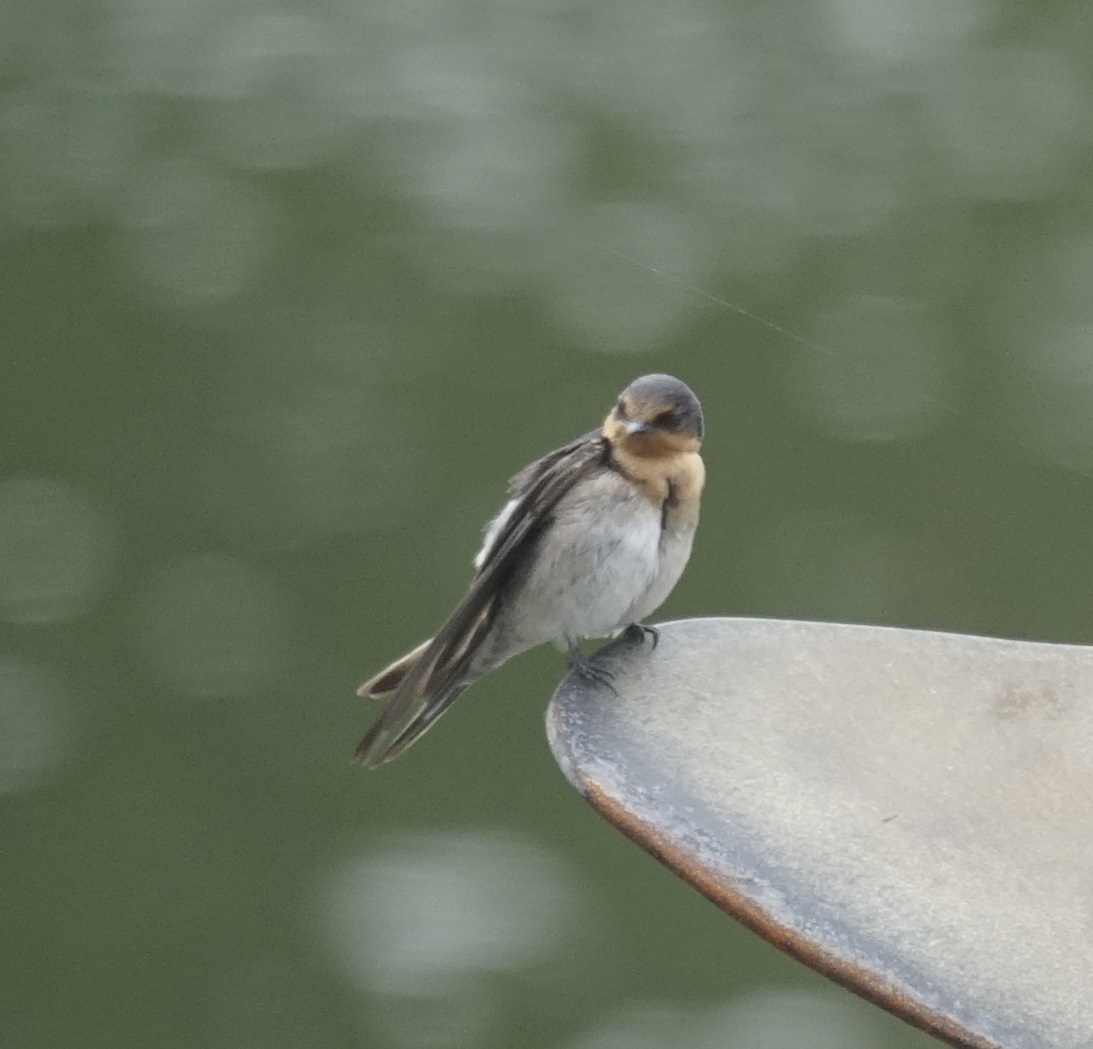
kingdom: Animalia
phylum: Chordata
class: Aves
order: Passeriformes
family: Hirundinidae
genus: Hirundo
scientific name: Hirundo neoxena
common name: Welcome swallow
